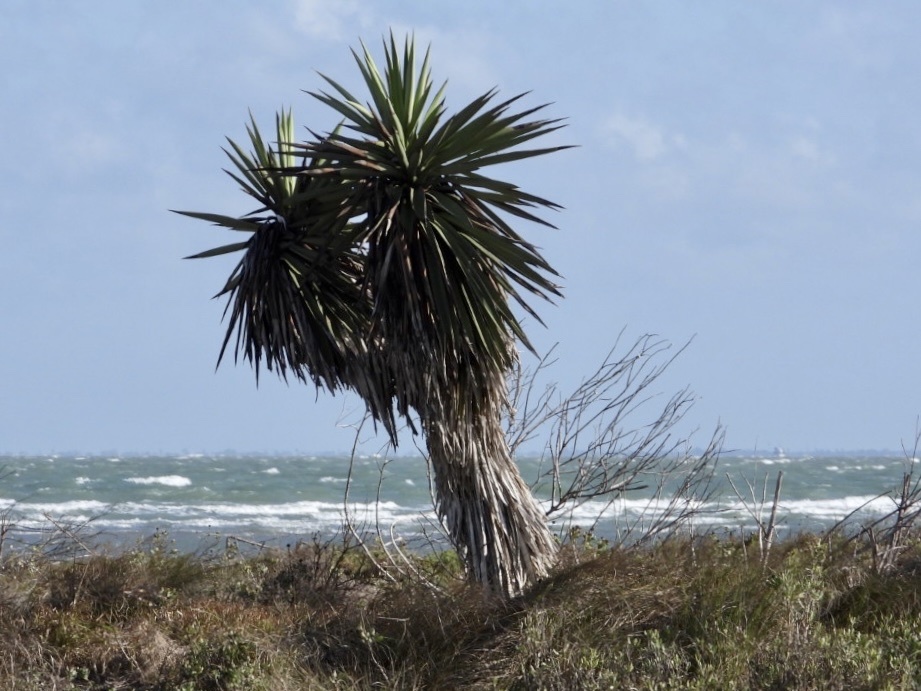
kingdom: Plantae
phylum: Tracheophyta
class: Liliopsida
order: Asparagales
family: Asparagaceae
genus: Yucca
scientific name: Yucca treculiana
